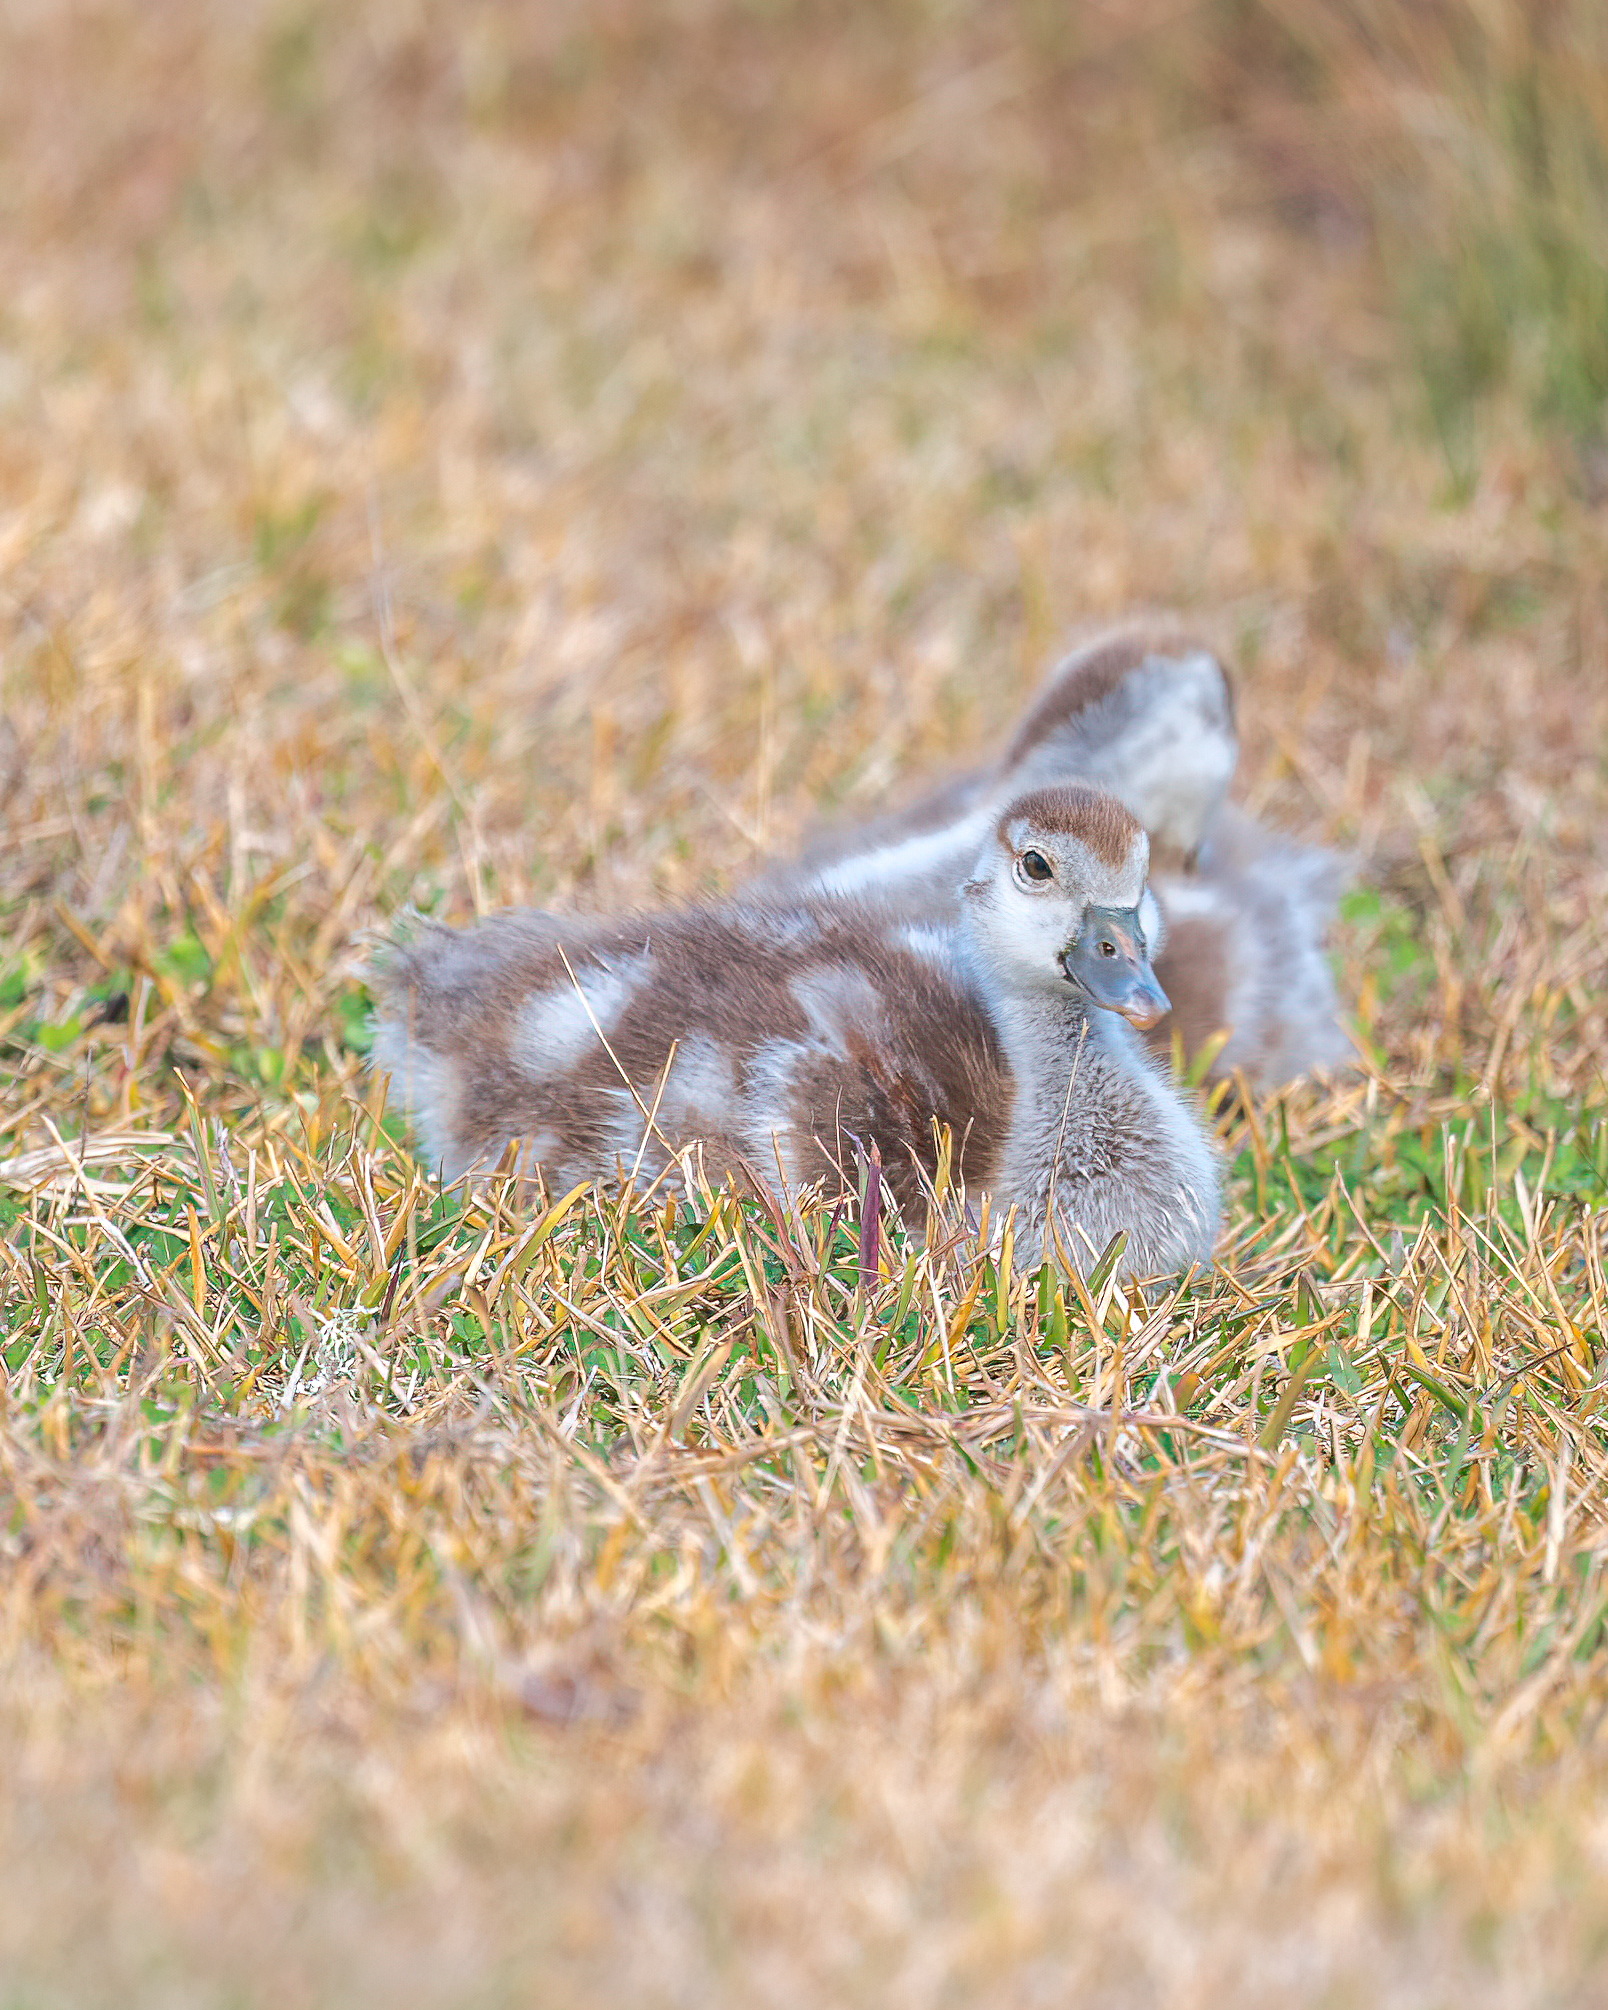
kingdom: Animalia
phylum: Chordata
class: Aves
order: Anseriformes
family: Anatidae
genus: Alopochen
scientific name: Alopochen aegyptiaca
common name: Egyptian goose
